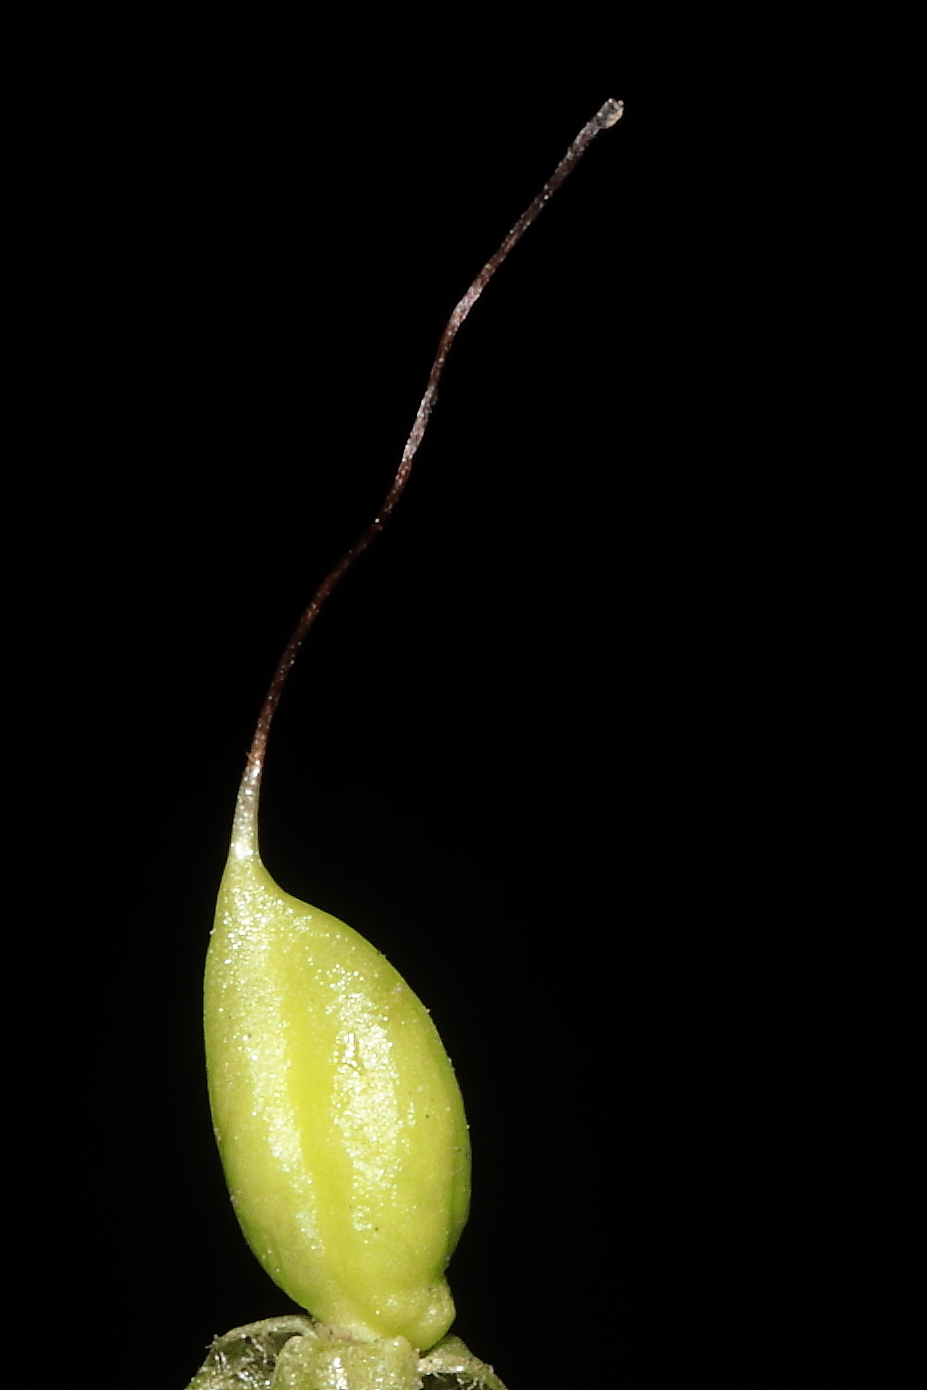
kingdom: Plantae
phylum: Tracheophyta
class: Magnoliopsida
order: Lamiales
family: Orobanchaceae
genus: Castilleja
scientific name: Castilleja nubigena
